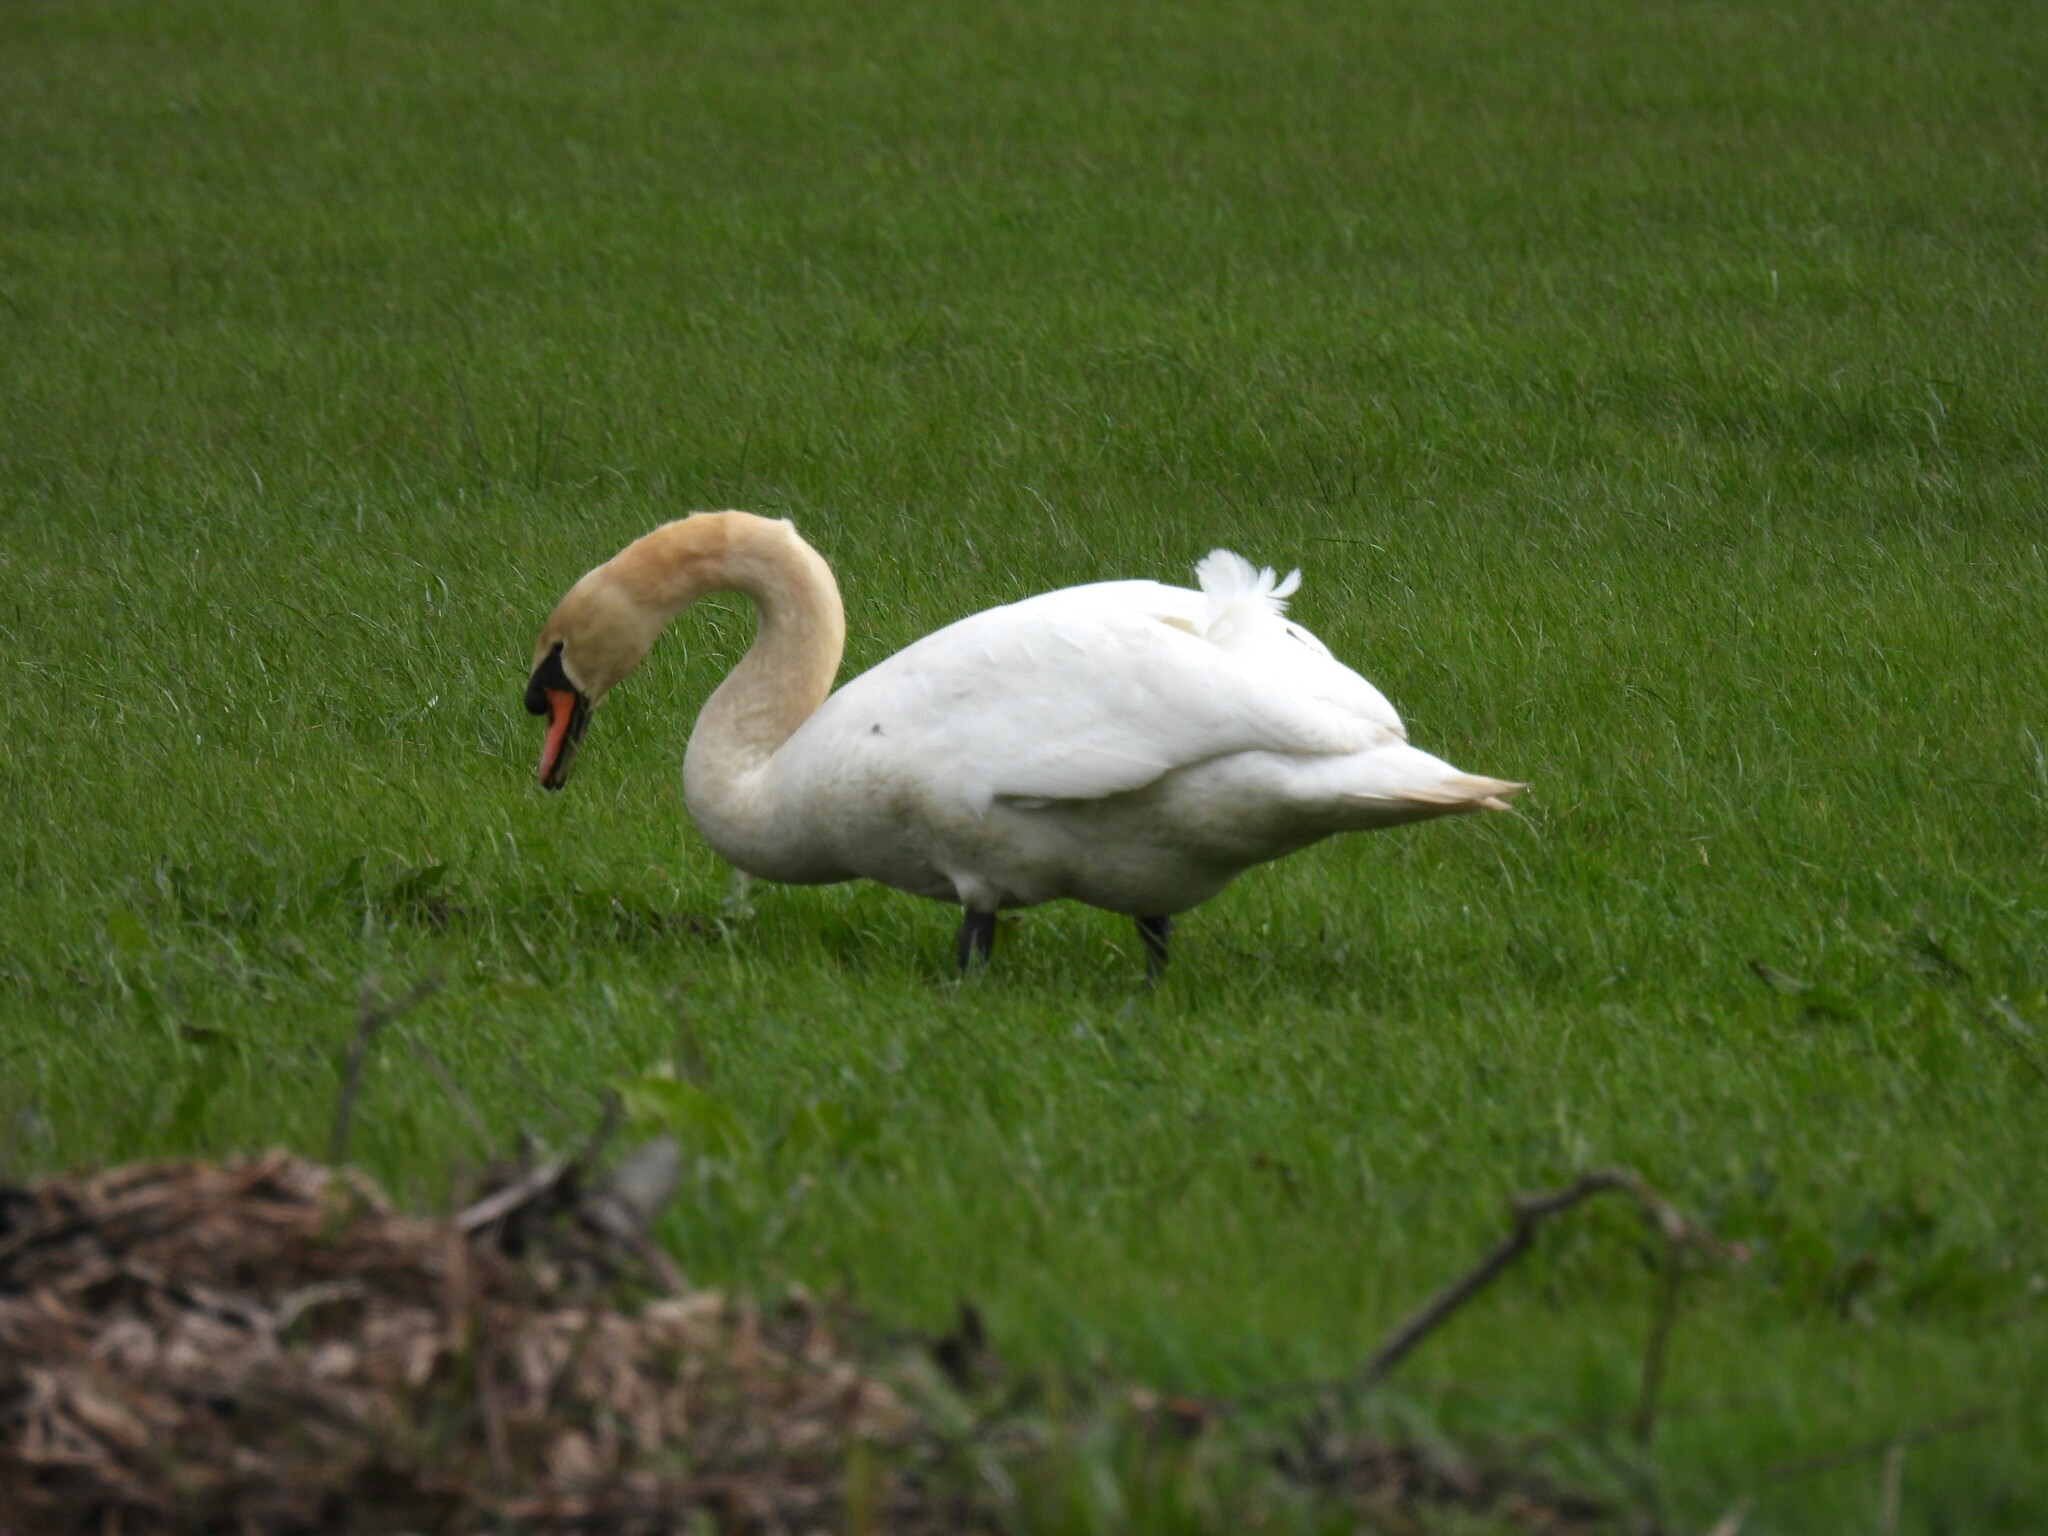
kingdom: Animalia
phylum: Chordata
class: Aves
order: Anseriformes
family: Anatidae
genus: Cygnus
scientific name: Cygnus olor
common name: Mute swan
